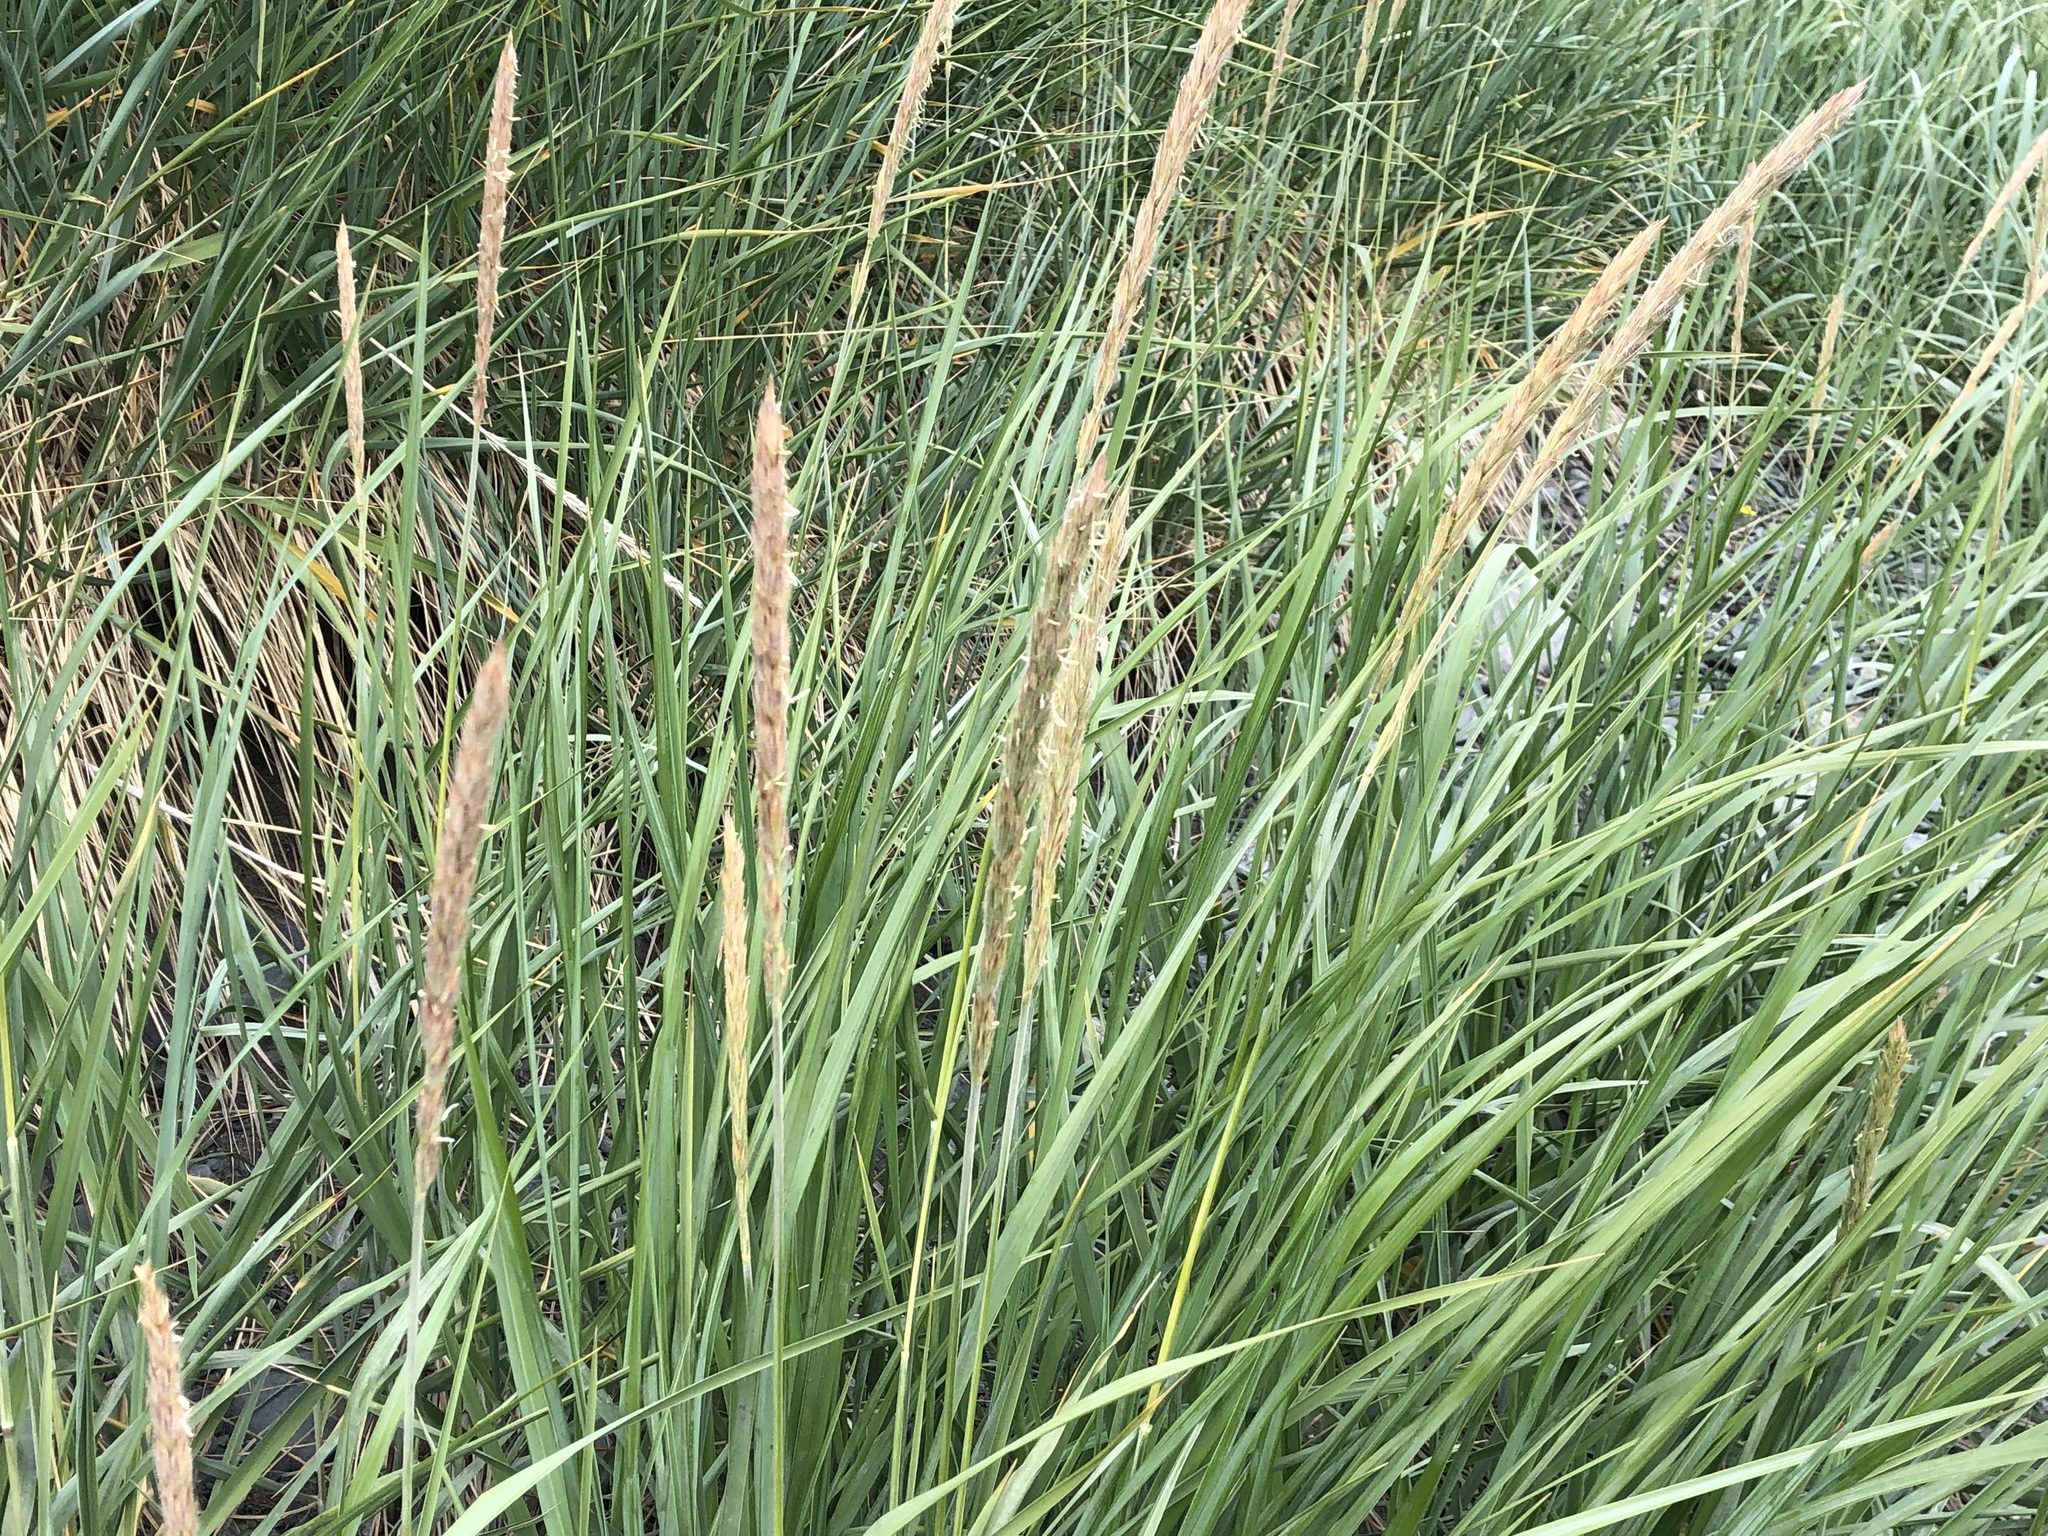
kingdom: Plantae
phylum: Tracheophyta
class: Liliopsida
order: Poales
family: Poaceae
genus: Leymus
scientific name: Leymus mollis
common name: American dune grass
